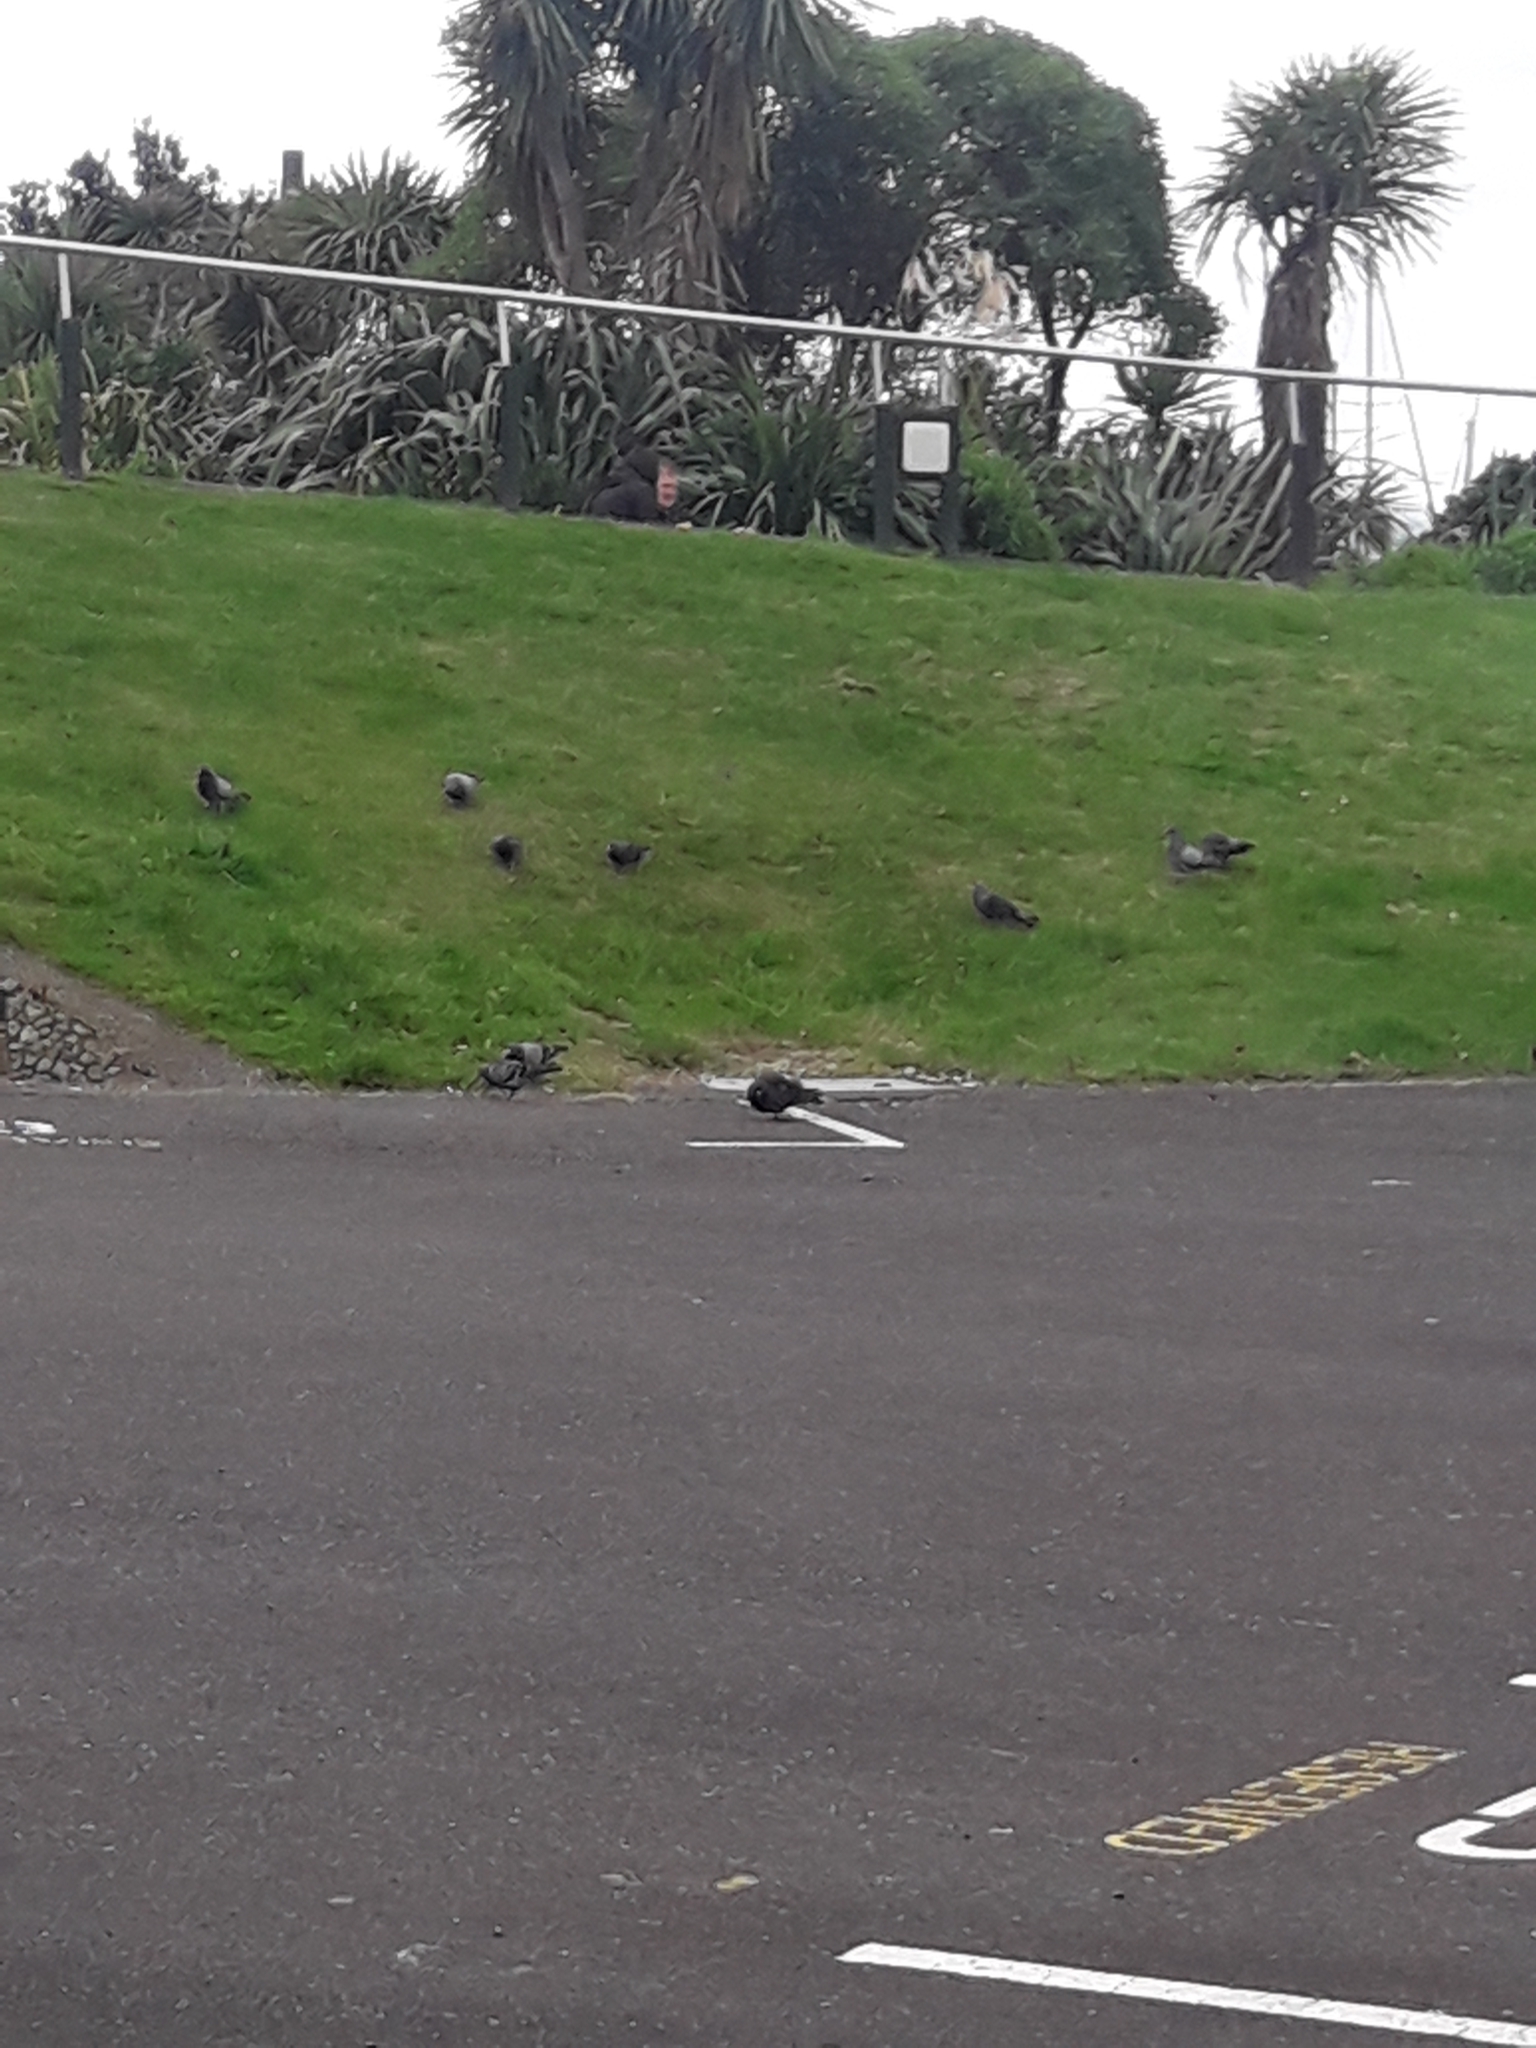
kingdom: Animalia
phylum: Chordata
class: Aves
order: Columbiformes
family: Columbidae
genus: Columba
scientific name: Columba livia
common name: Rock pigeon
